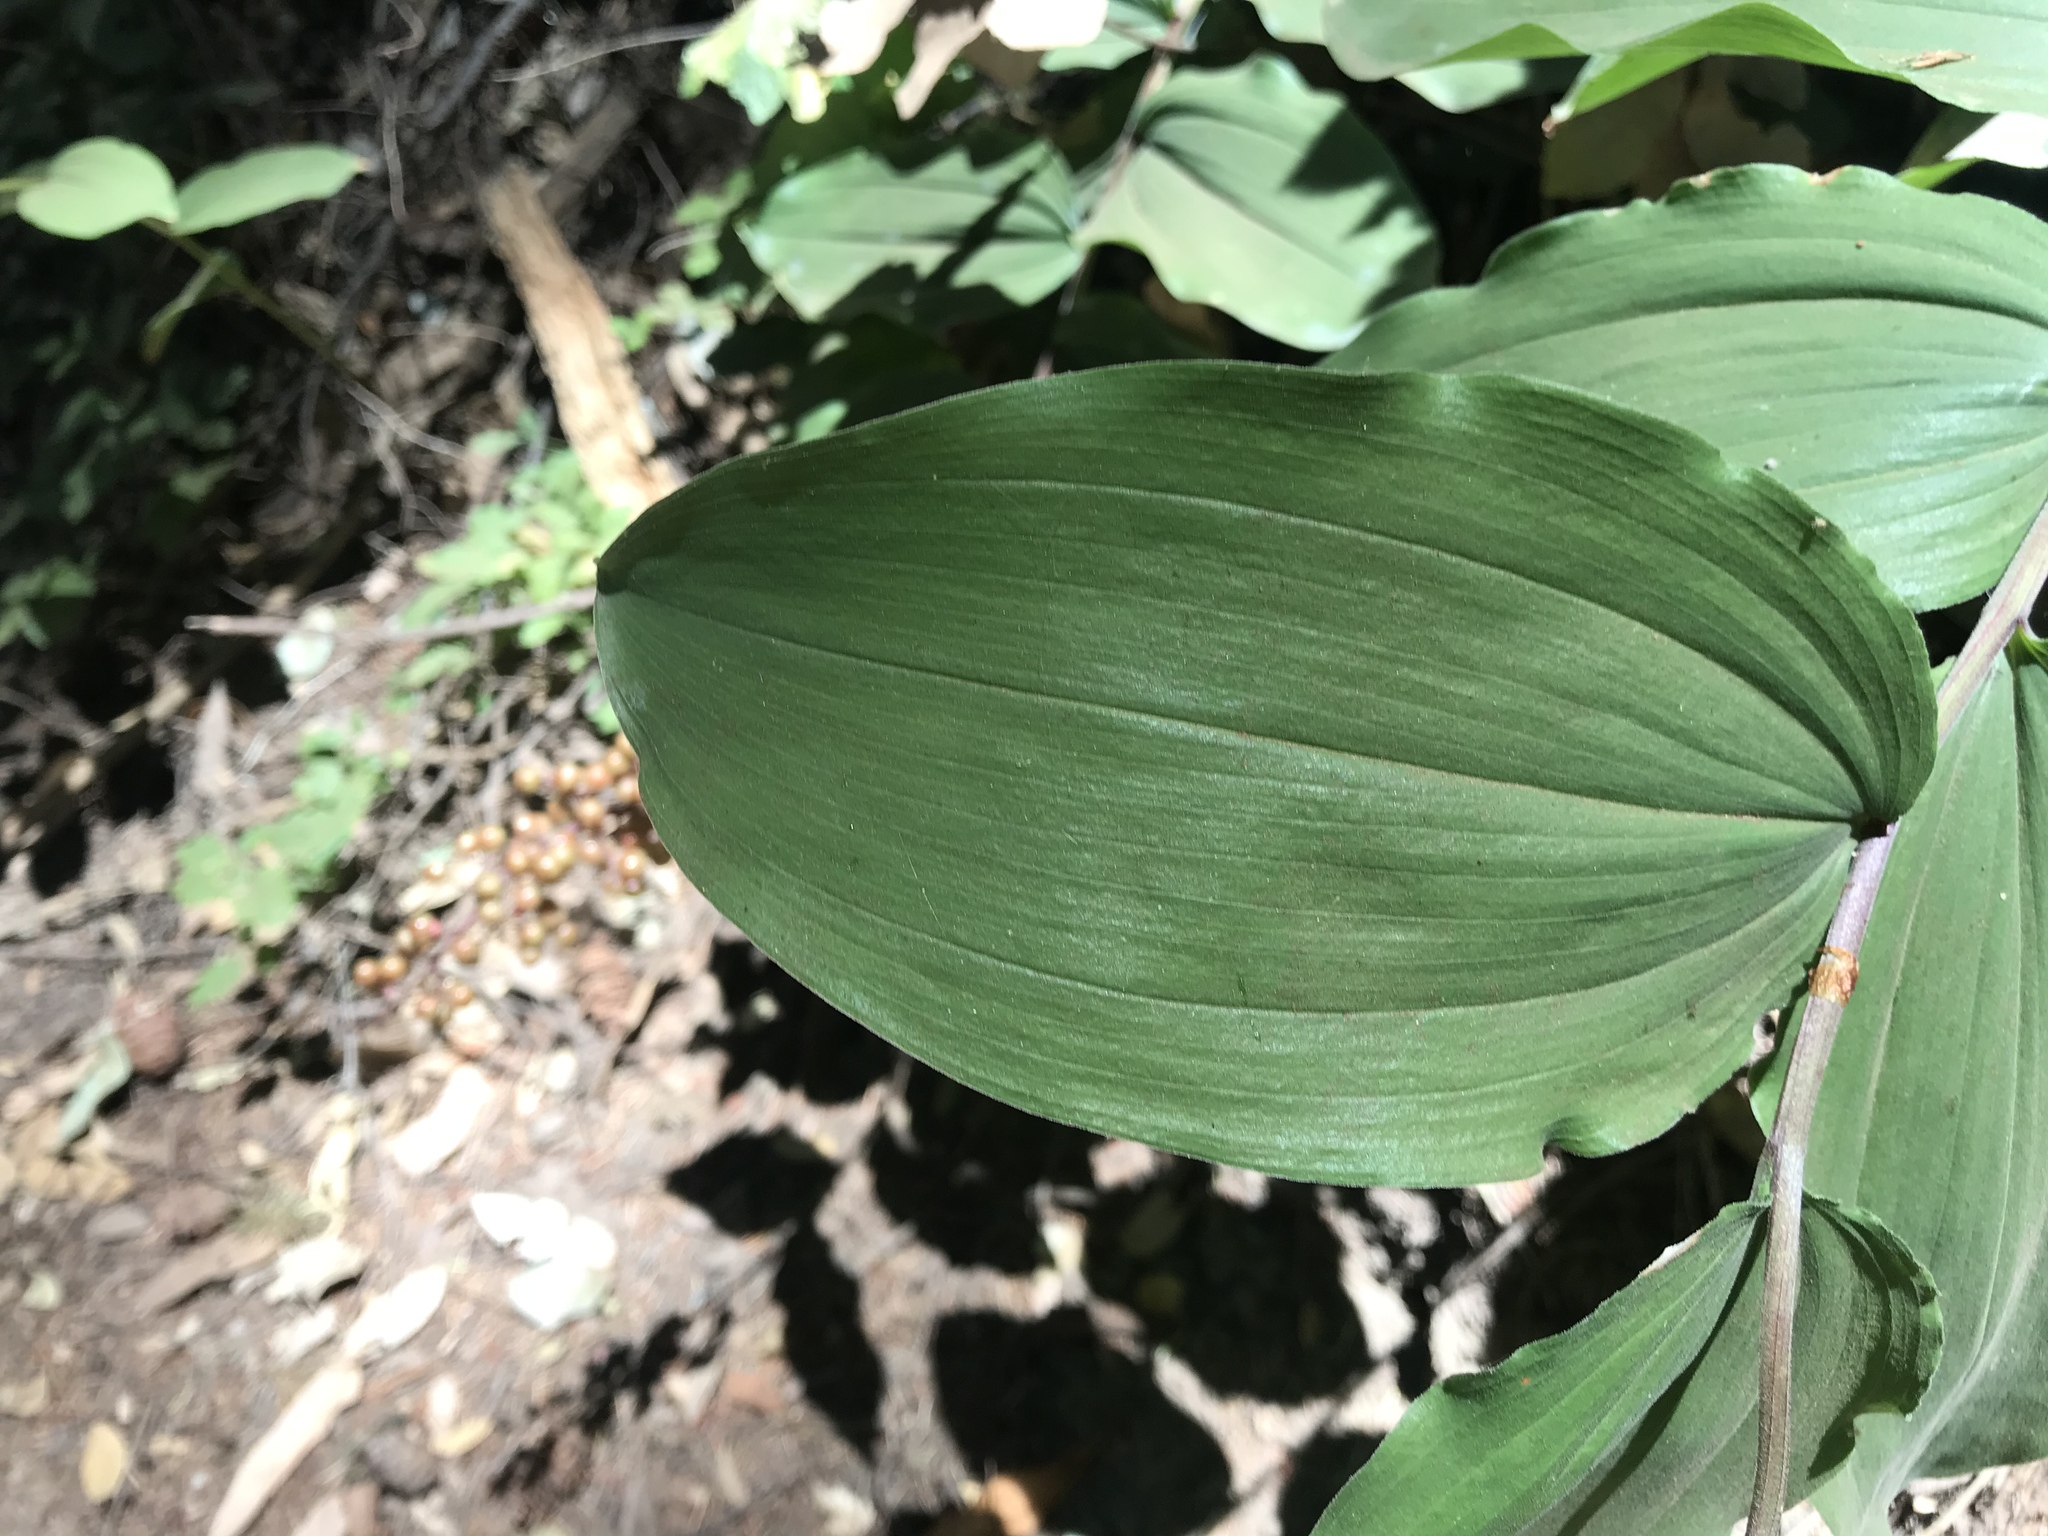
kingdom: Plantae
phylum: Tracheophyta
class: Liliopsida
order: Asparagales
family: Asparagaceae
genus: Maianthemum
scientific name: Maianthemum racemosum
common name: False spikenard
